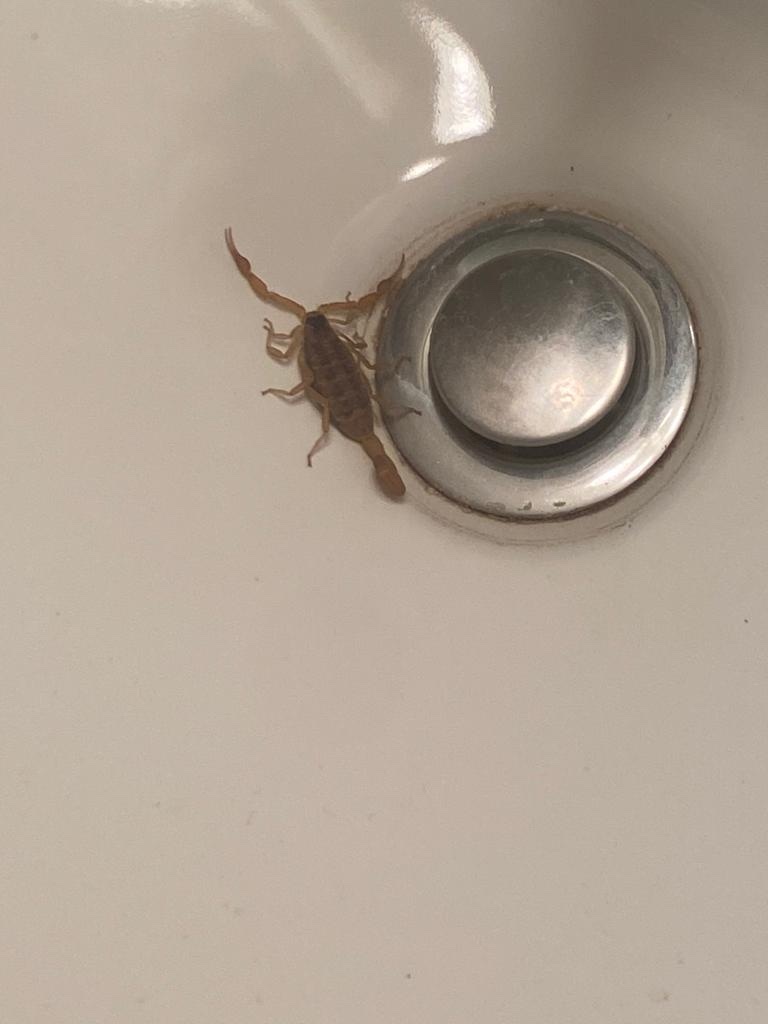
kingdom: Animalia
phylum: Arthropoda
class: Arachnida
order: Scorpiones
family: Buthidae
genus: Centruroides
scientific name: Centruroides vittatus
